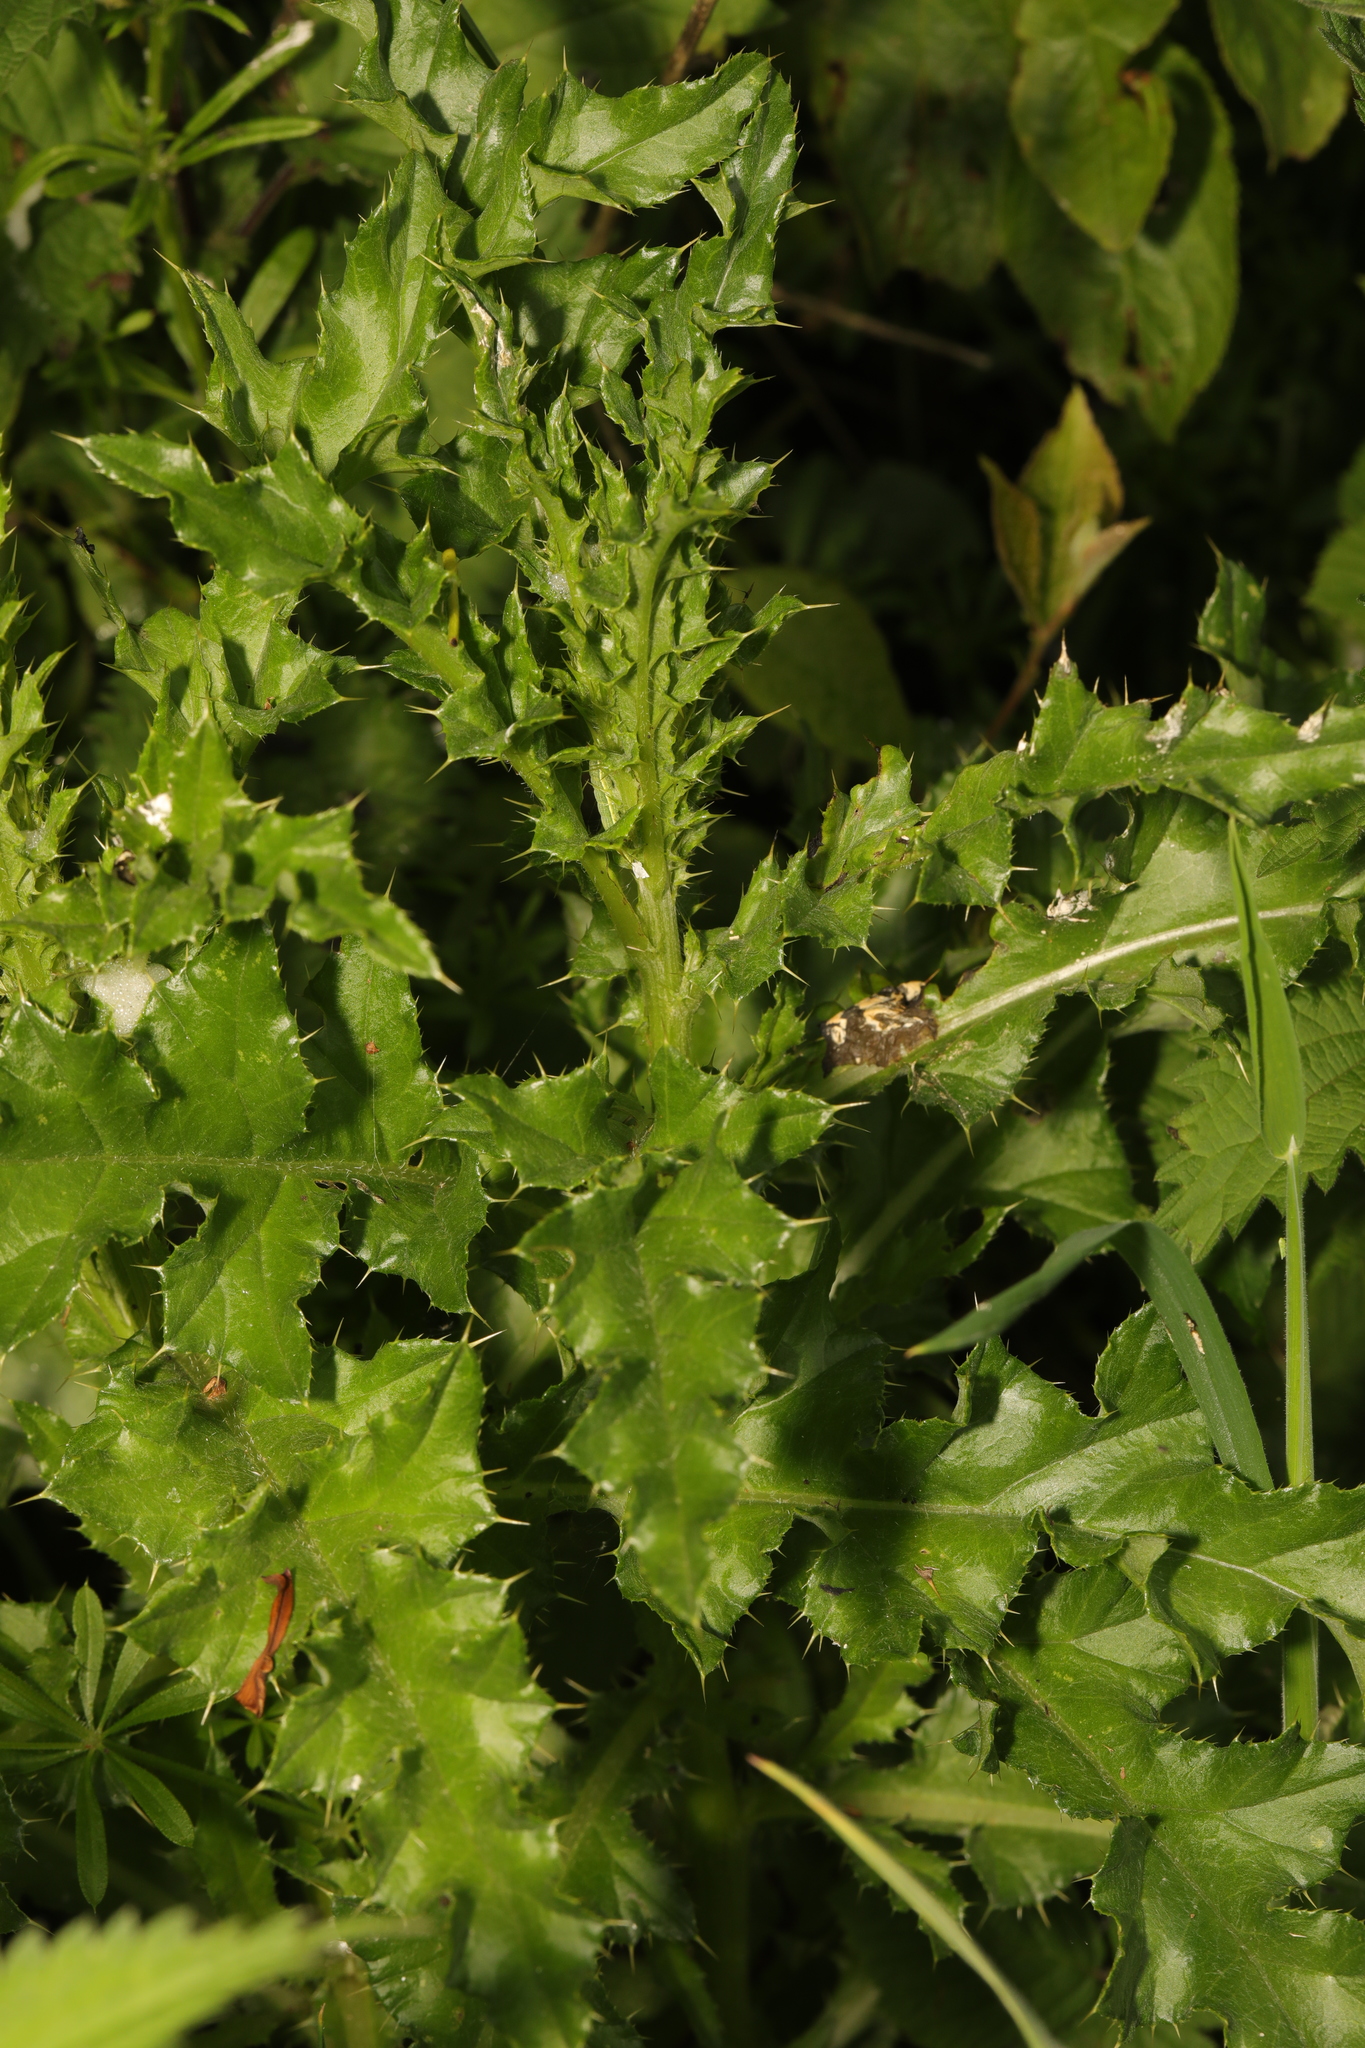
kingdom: Plantae
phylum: Tracheophyta
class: Magnoliopsida
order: Asterales
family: Asteraceae
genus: Cirsium
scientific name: Cirsium arvense
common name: Creeping thistle
